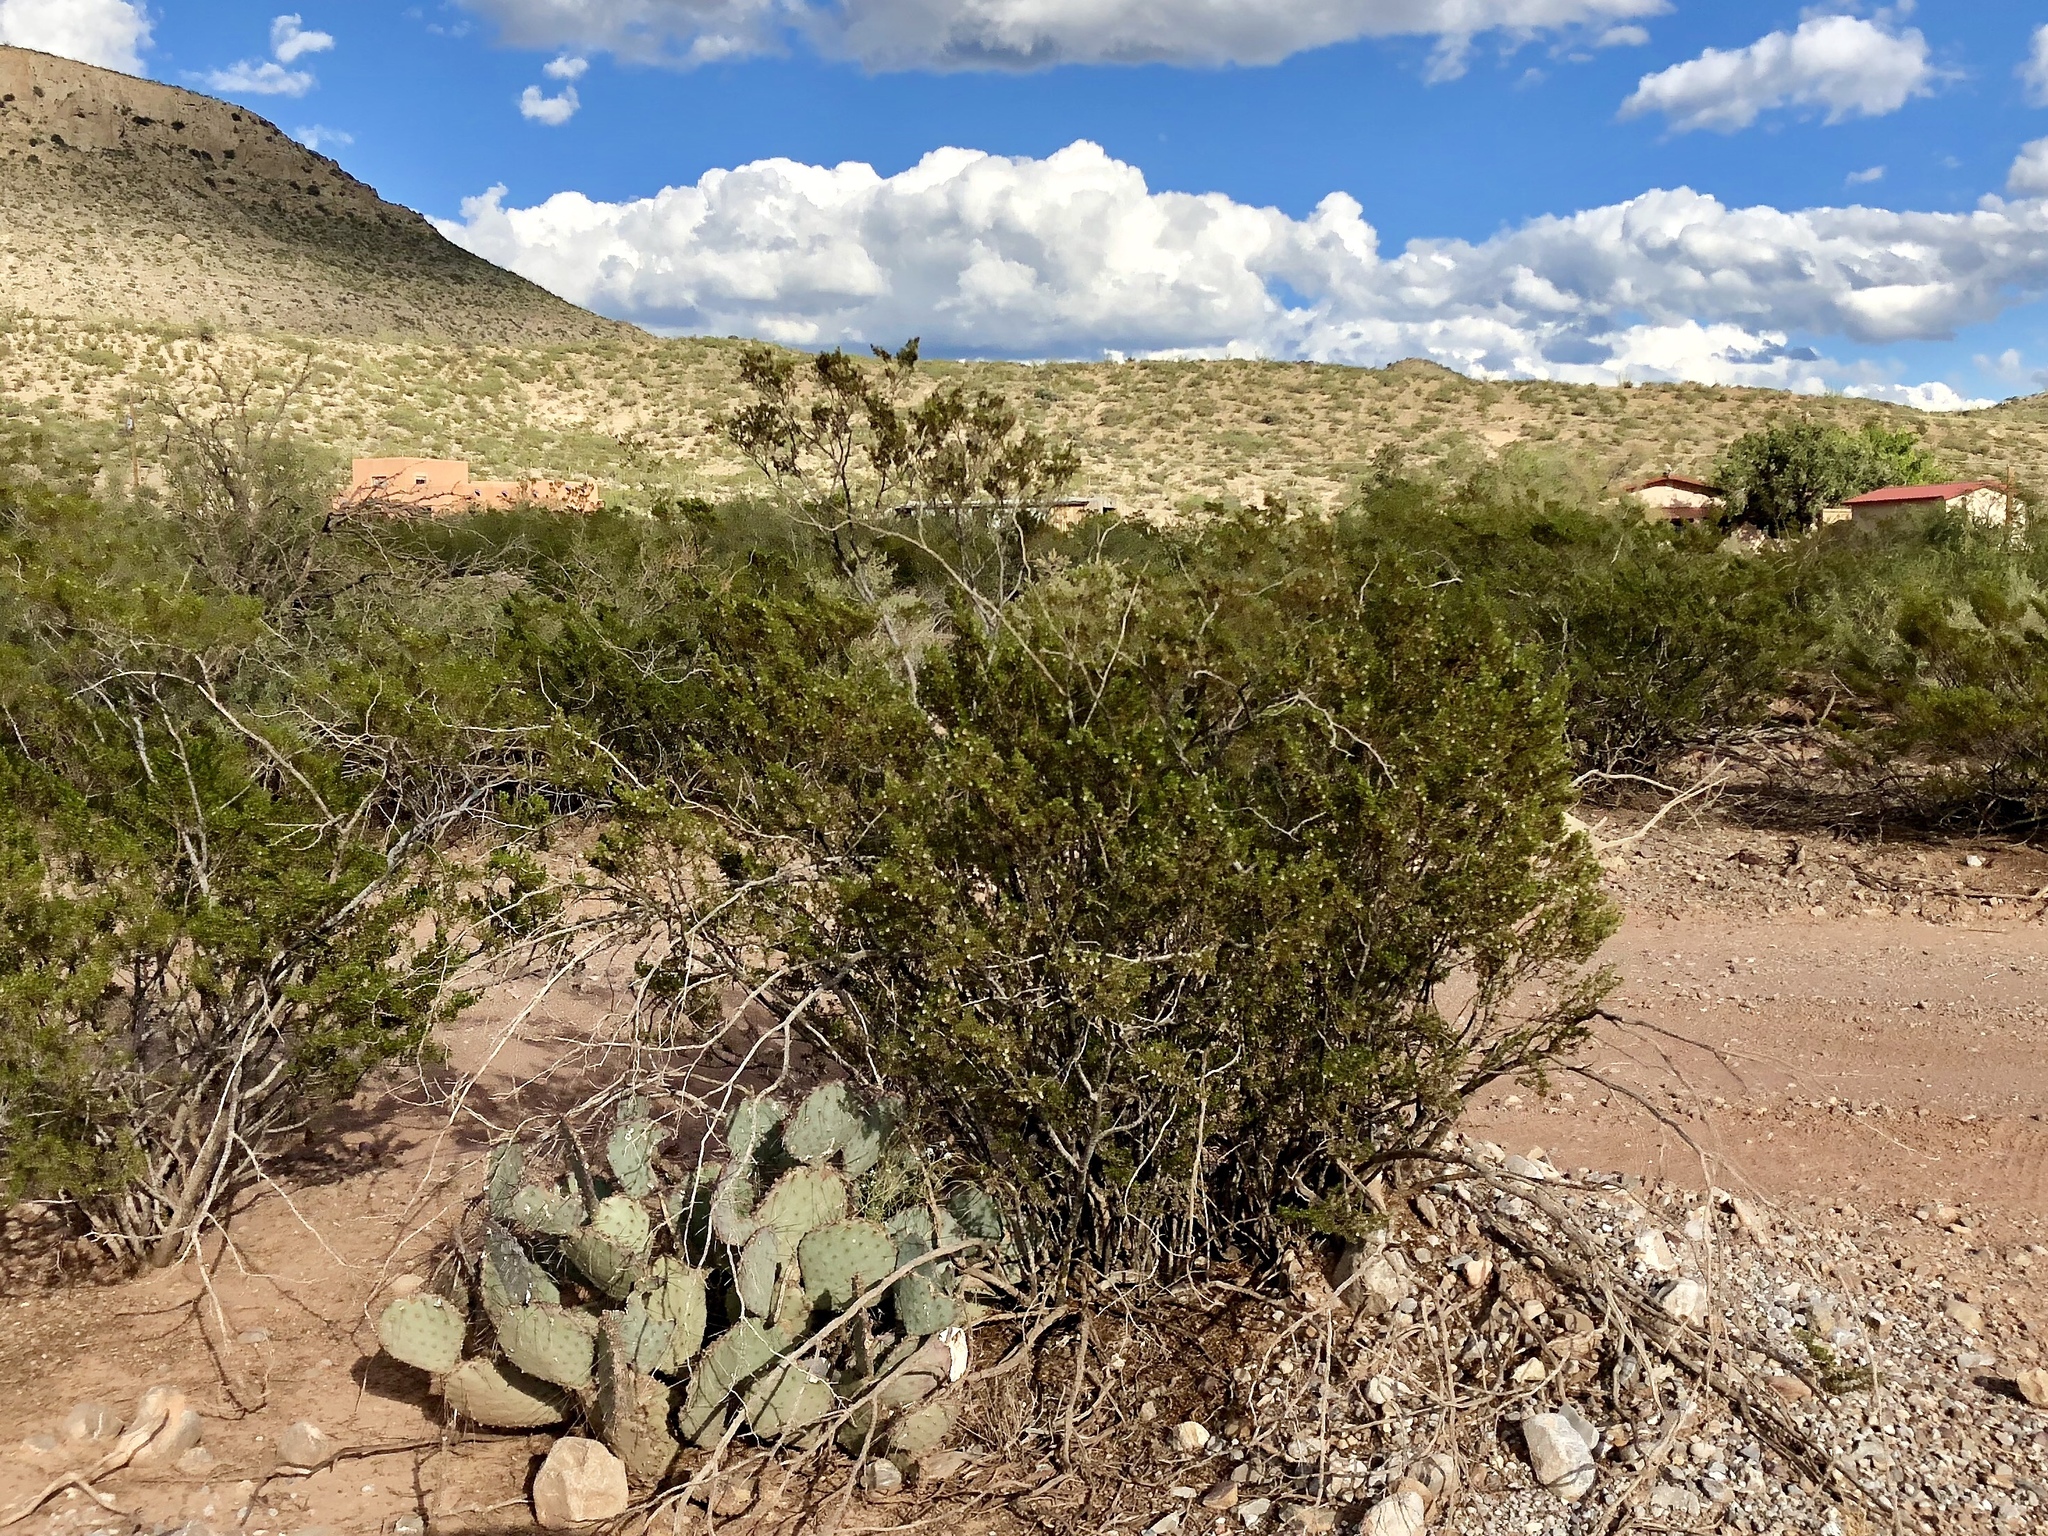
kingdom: Plantae
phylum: Tracheophyta
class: Magnoliopsida
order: Zygophyllales
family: Zygophyllaceae
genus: Larrea
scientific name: Larrea tridentata
